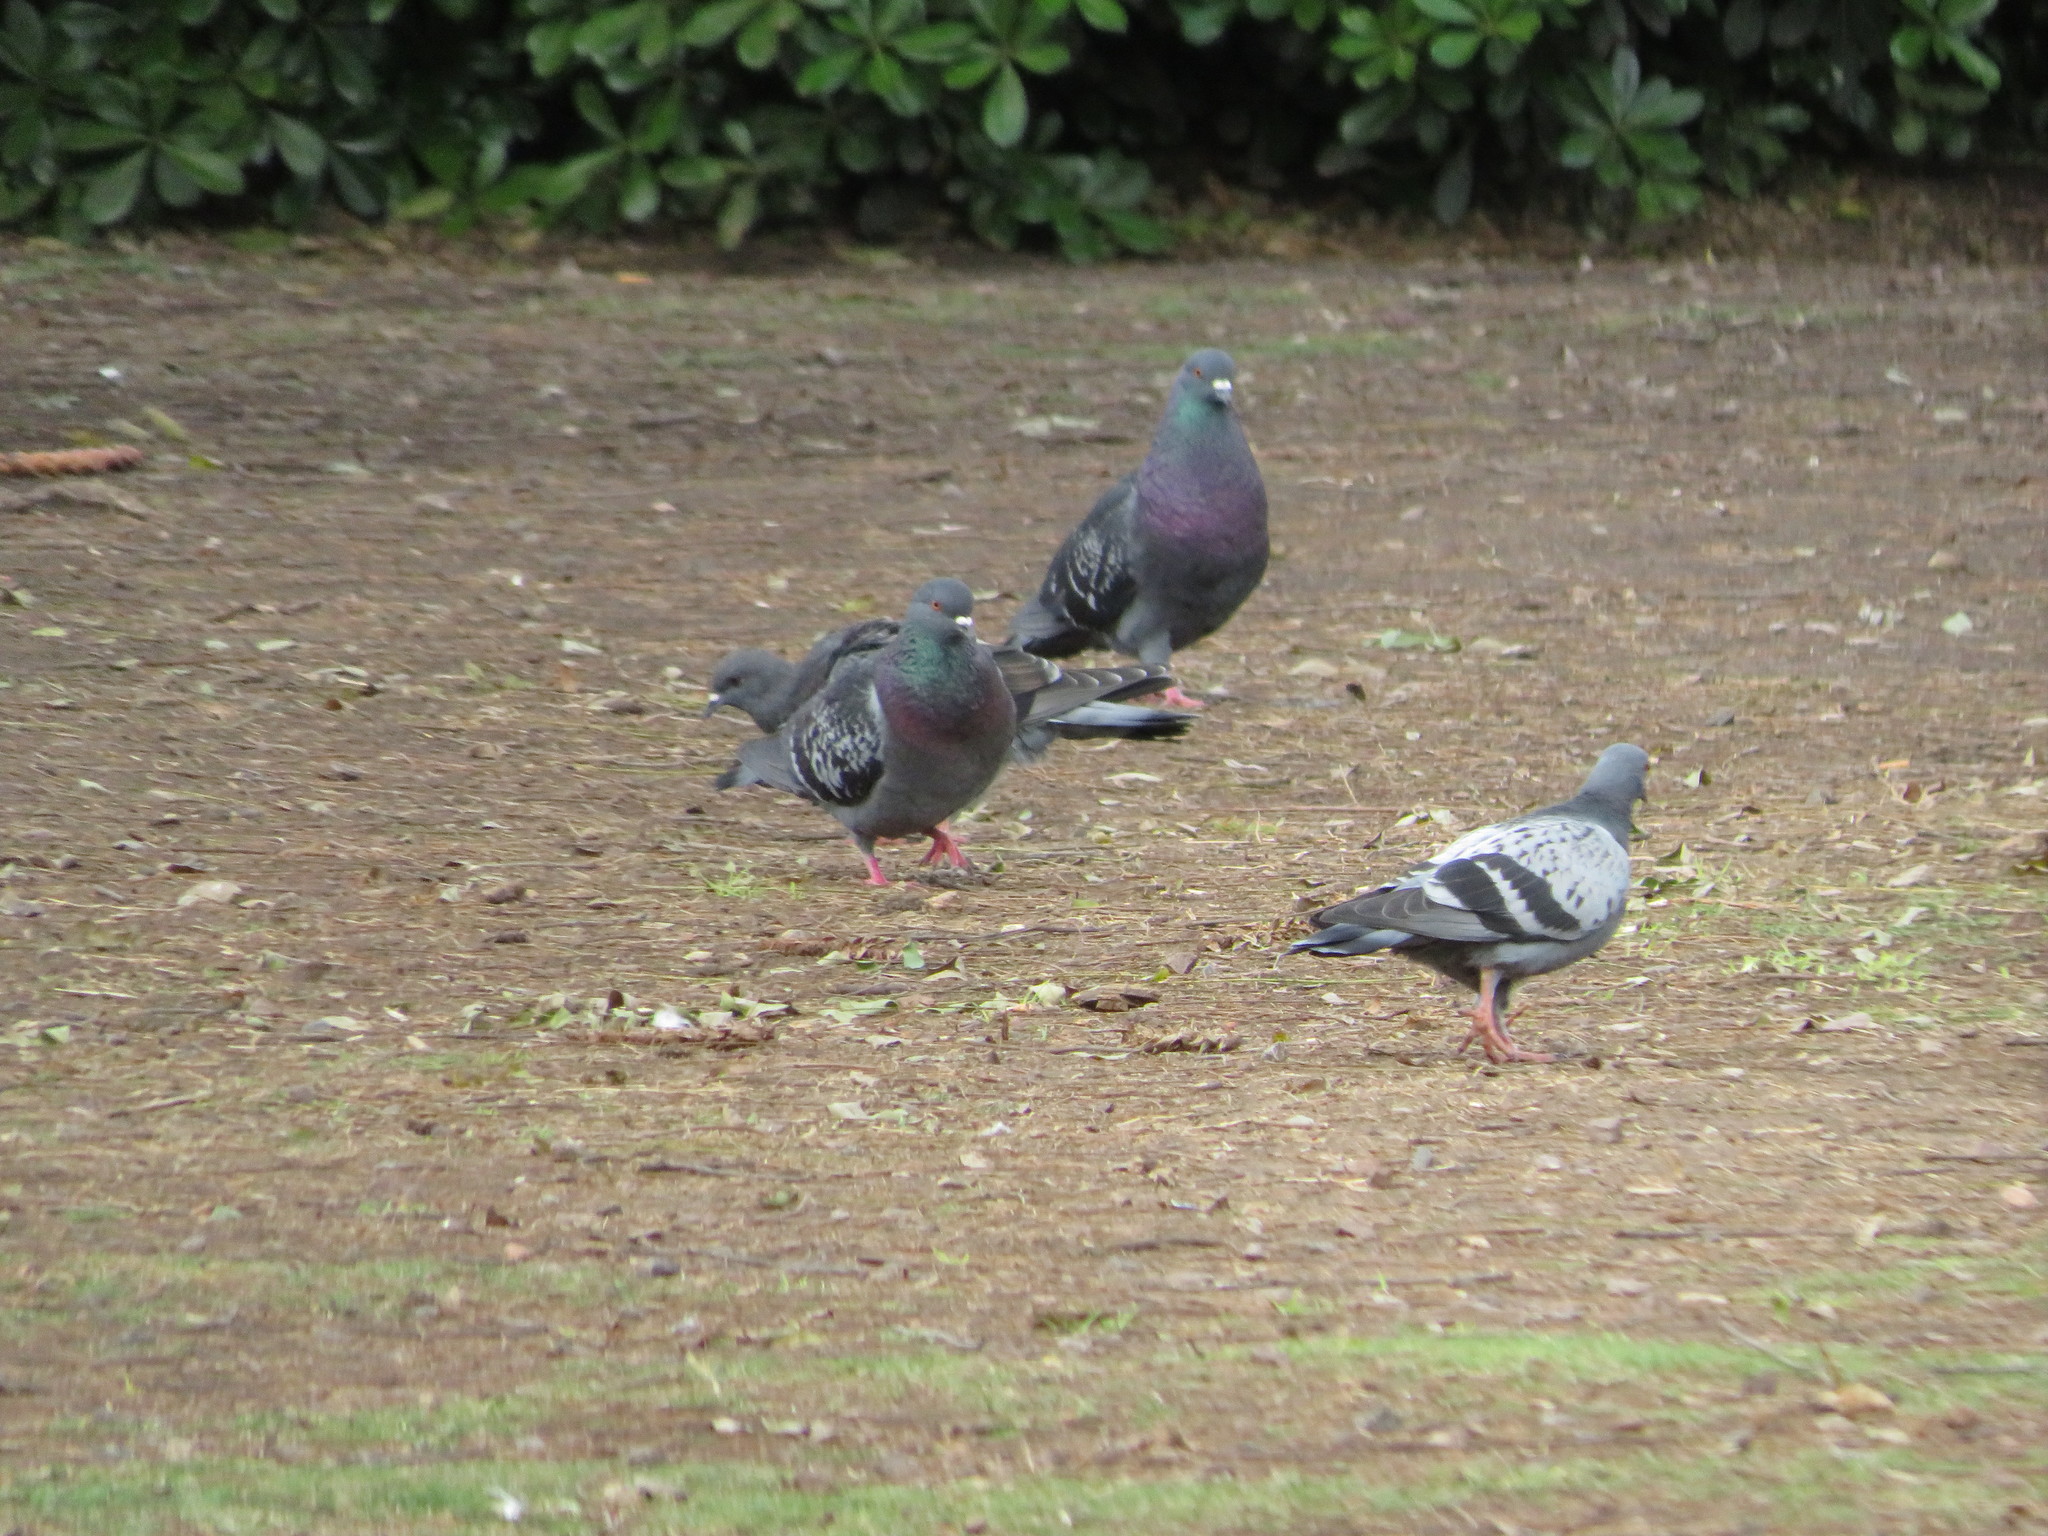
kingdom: Animalia
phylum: Chordata
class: Aves
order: Columbiformes
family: Columbidae
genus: Columba
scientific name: Columba livia
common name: Rock pigeon
